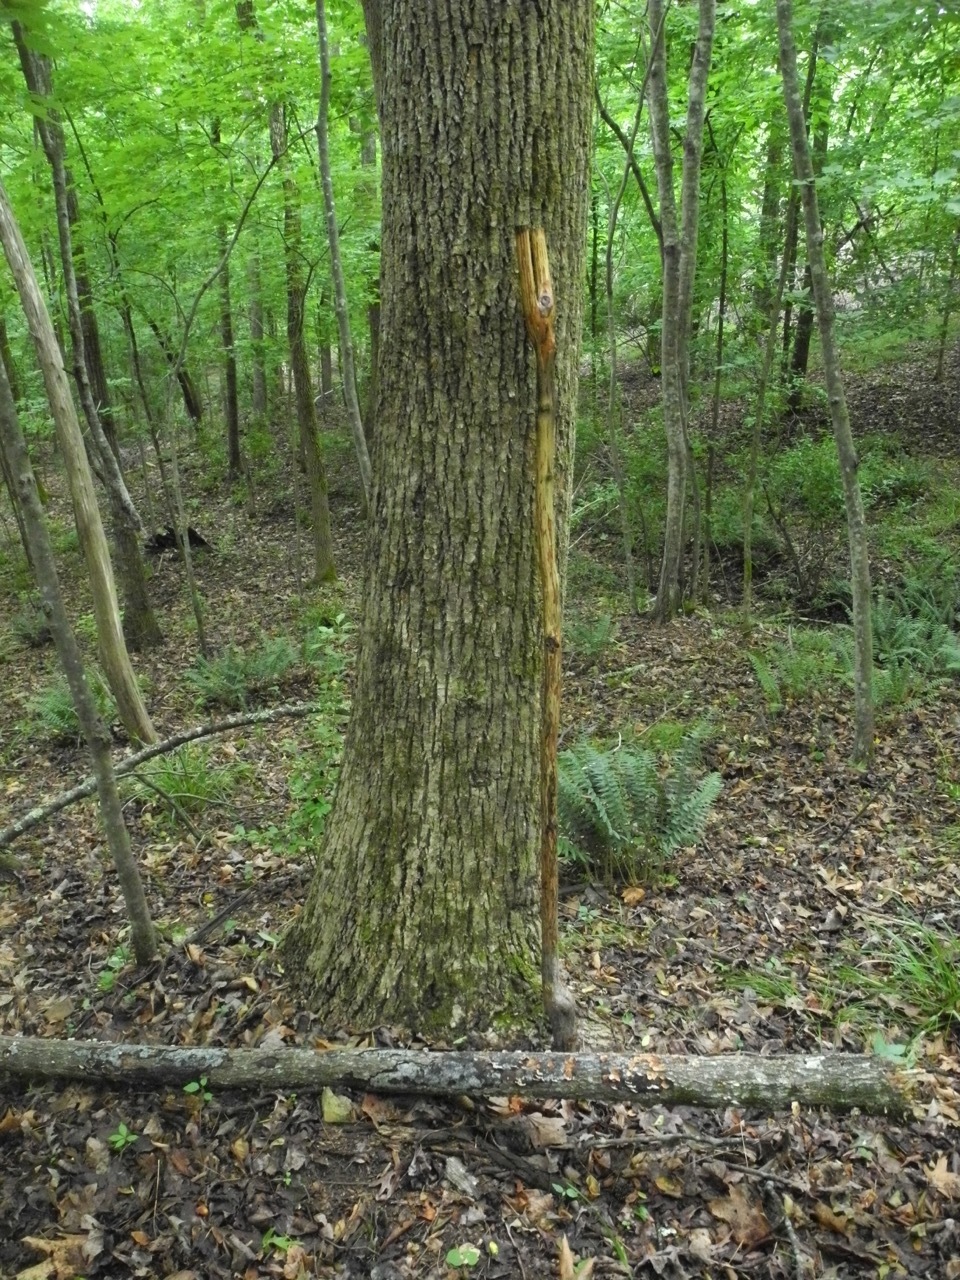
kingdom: Plantae
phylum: Tracheophyta
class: Magnoliopsida
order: Magnoliales
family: Magnoliaceae
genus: Liriodendron
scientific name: Liriodendron tulipifera
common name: Tulip tree
